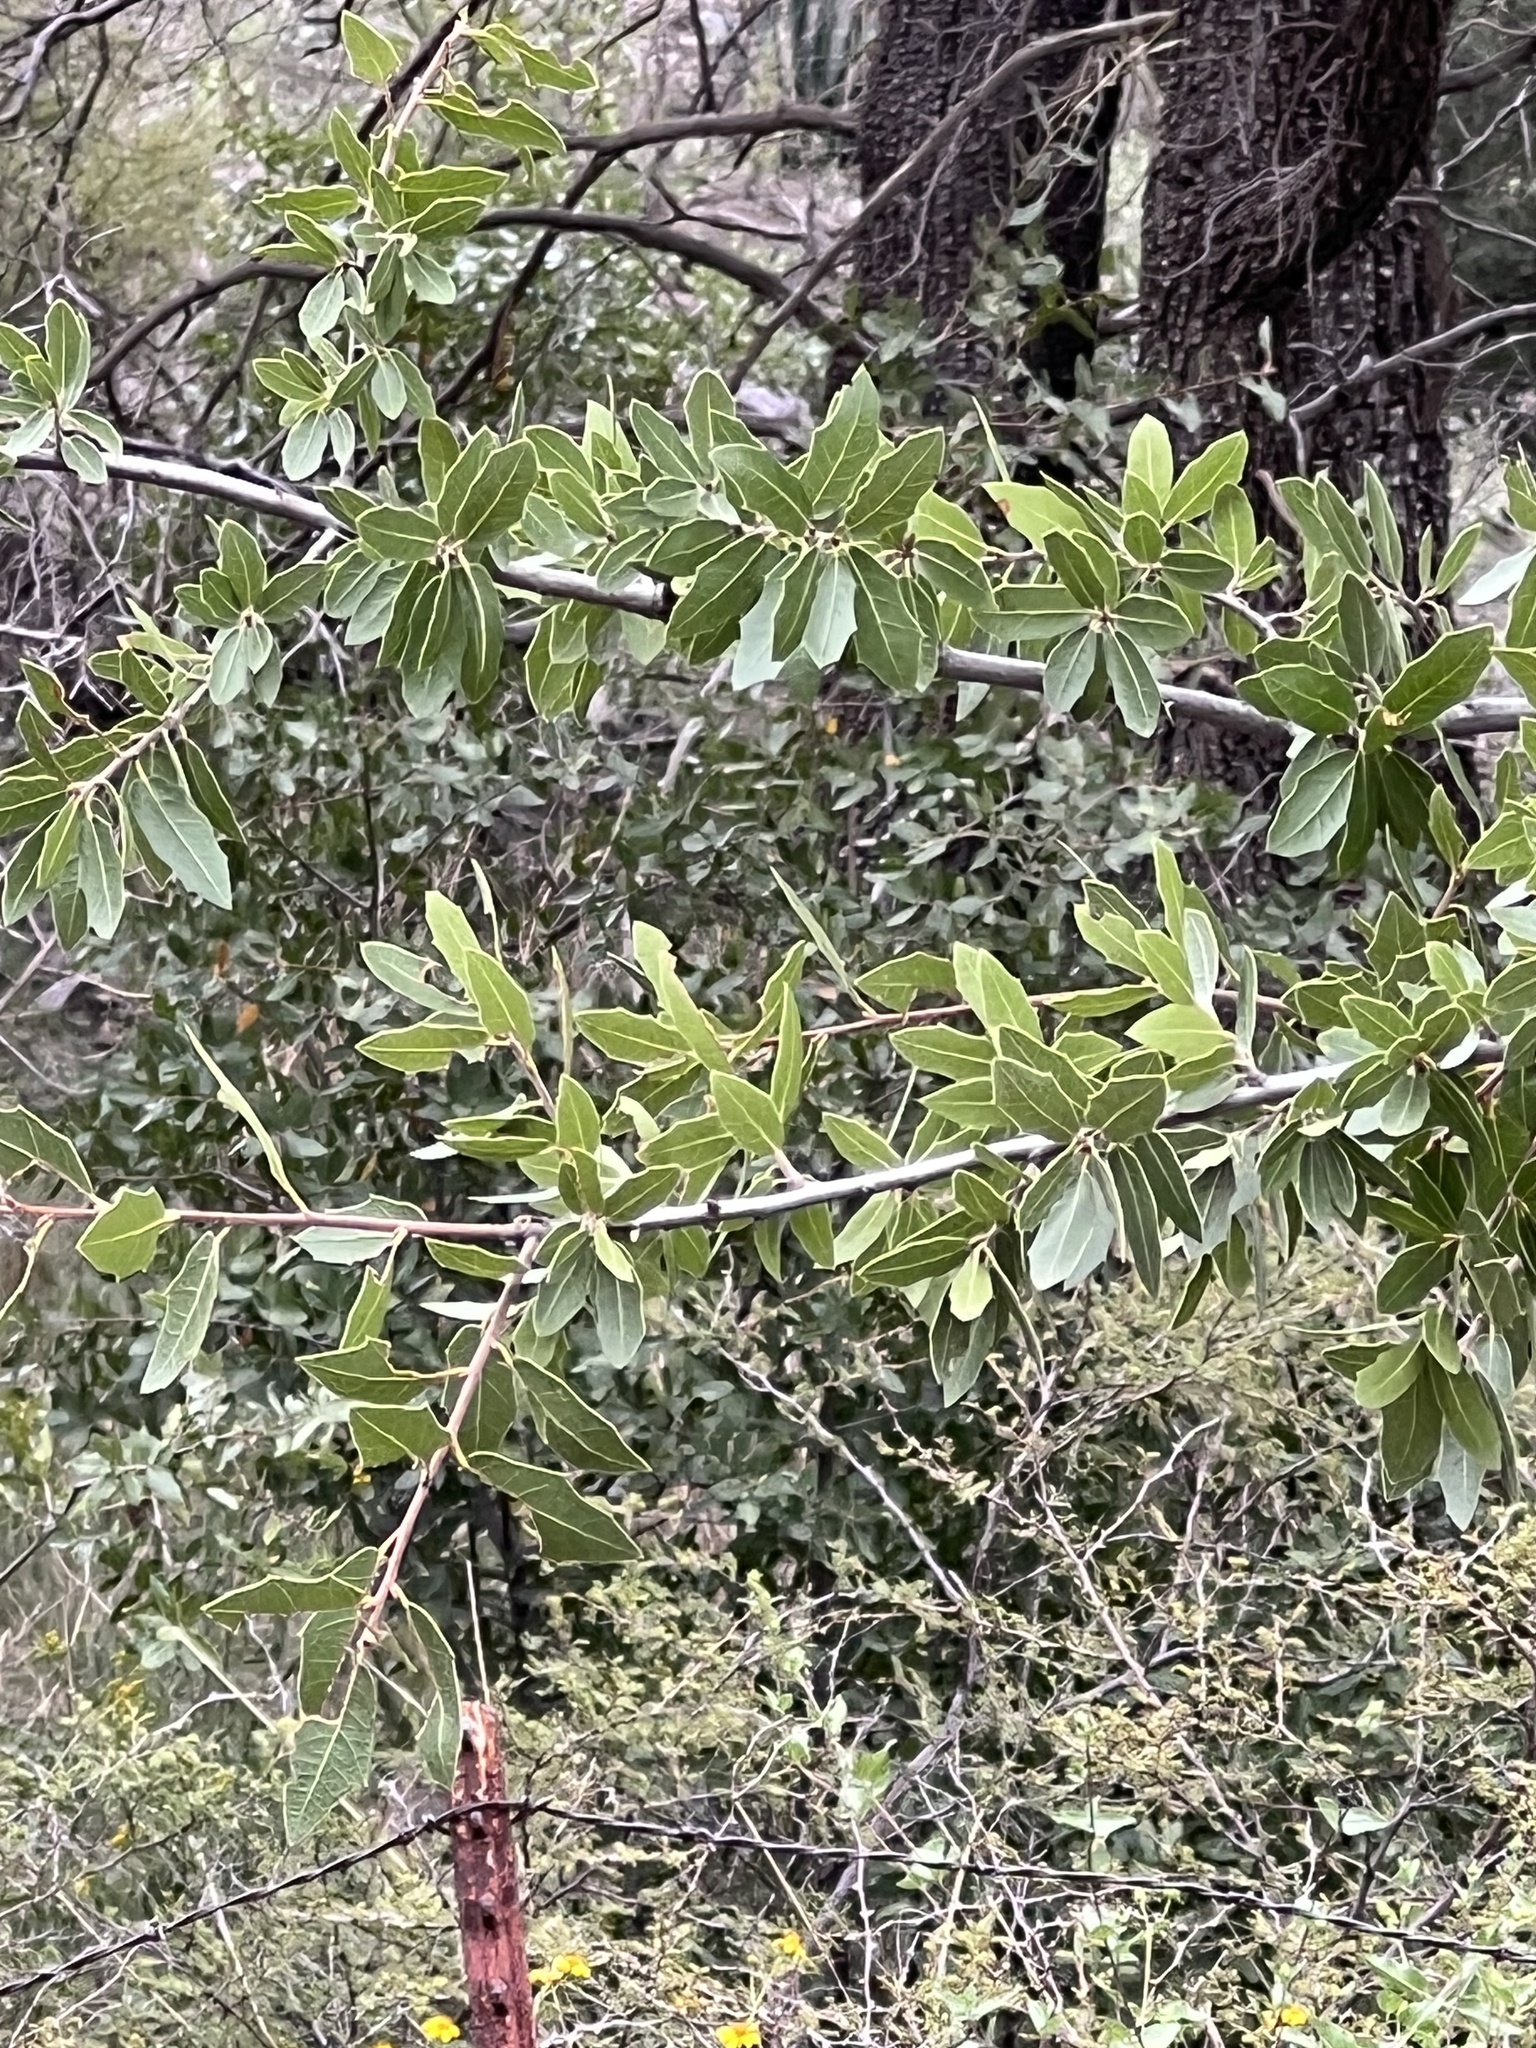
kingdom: Plantae
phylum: Tracheophyta
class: Magnoliopsida
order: Fagales
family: Fagaceae
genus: Quercus
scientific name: Quercus emoryi
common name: Emory oak
